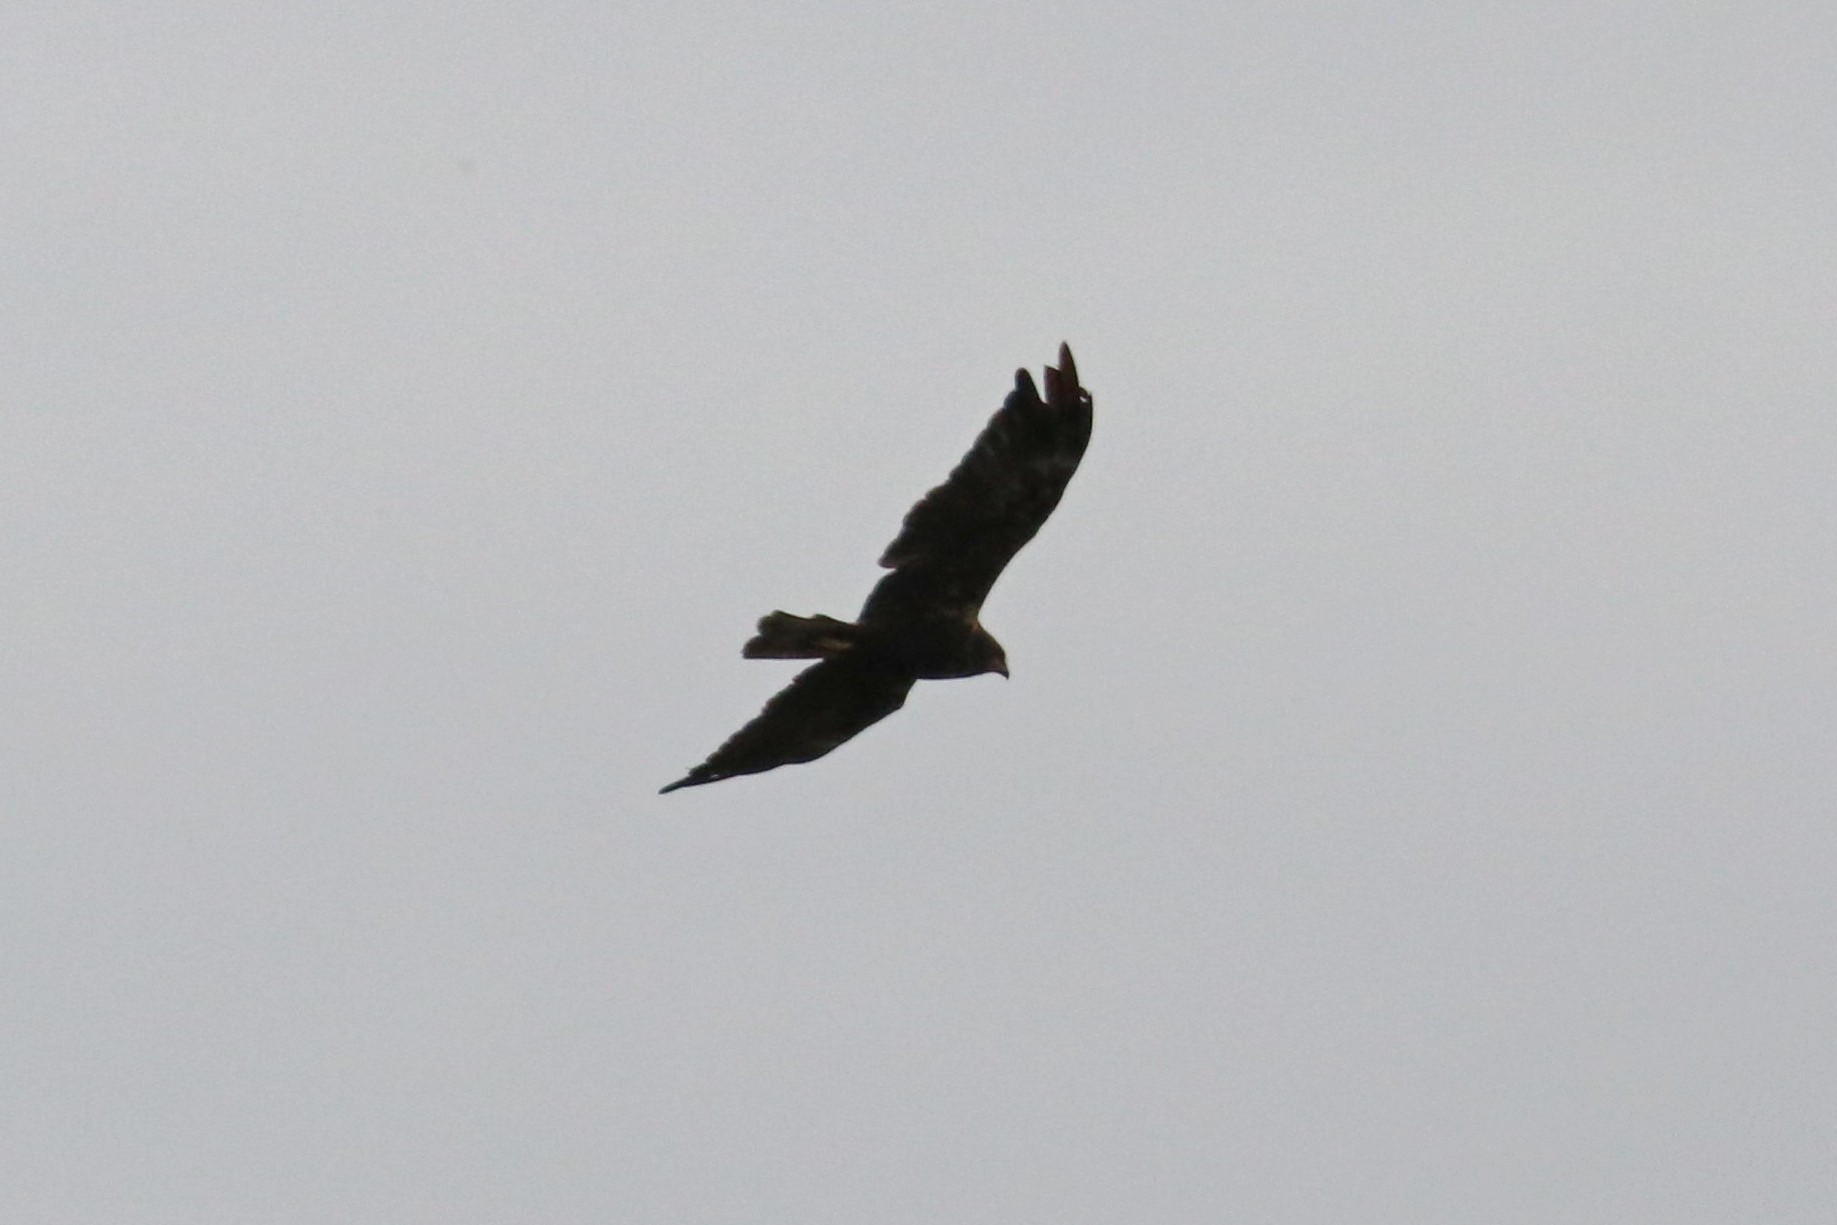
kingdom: Animalia
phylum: Chordata
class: Aves
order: Accipitriformes
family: Accipitridae
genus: Circus
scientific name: Circus aeruginosus
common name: Western marsh harrier
